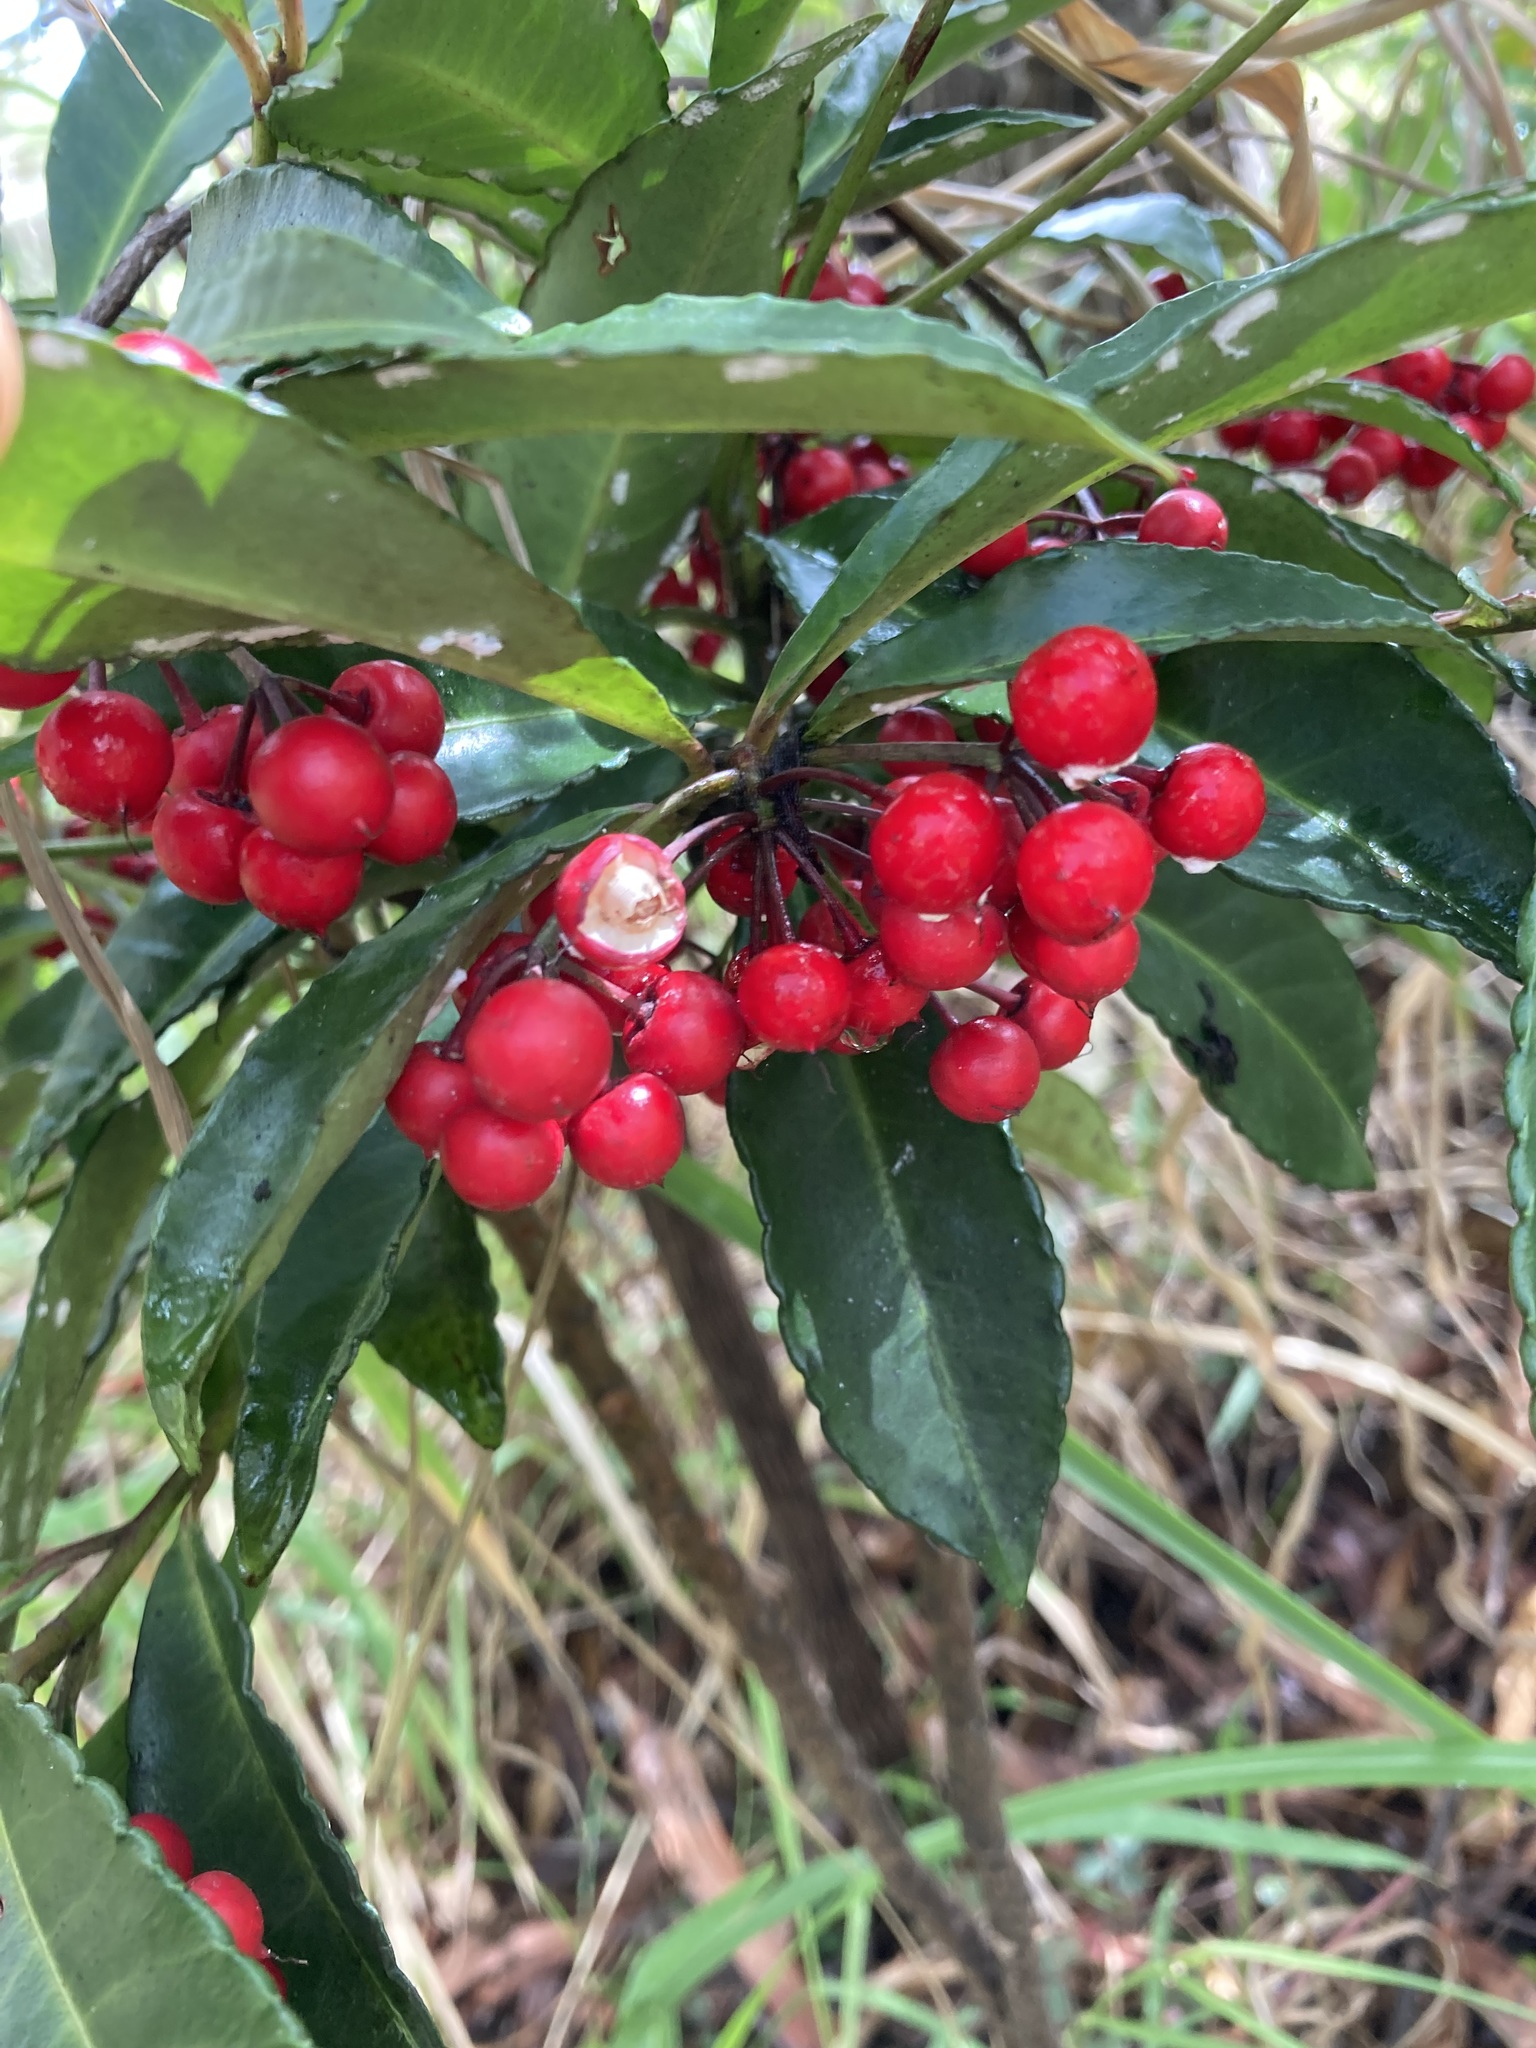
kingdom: Plantae
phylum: Tracheophyta
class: Magnoliopsida
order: Ericales
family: Primulaceae
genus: Ardisia
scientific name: Ardisia crenata
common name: Hen's eyes
